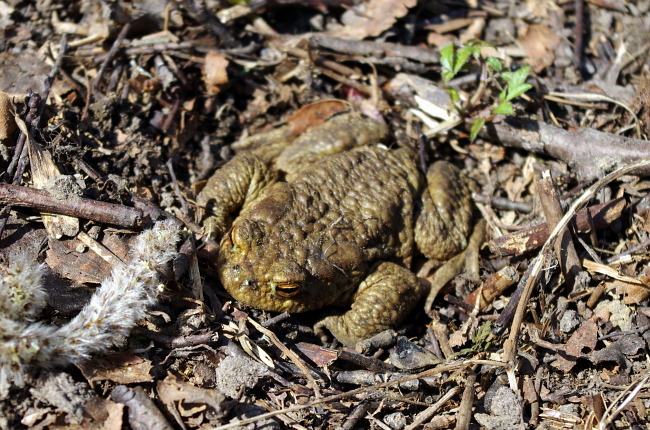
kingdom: Animalia
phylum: Chordata
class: Amphibia
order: Anura
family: Bufonidae
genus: Bufo
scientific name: Bufo bufo
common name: Common toad
